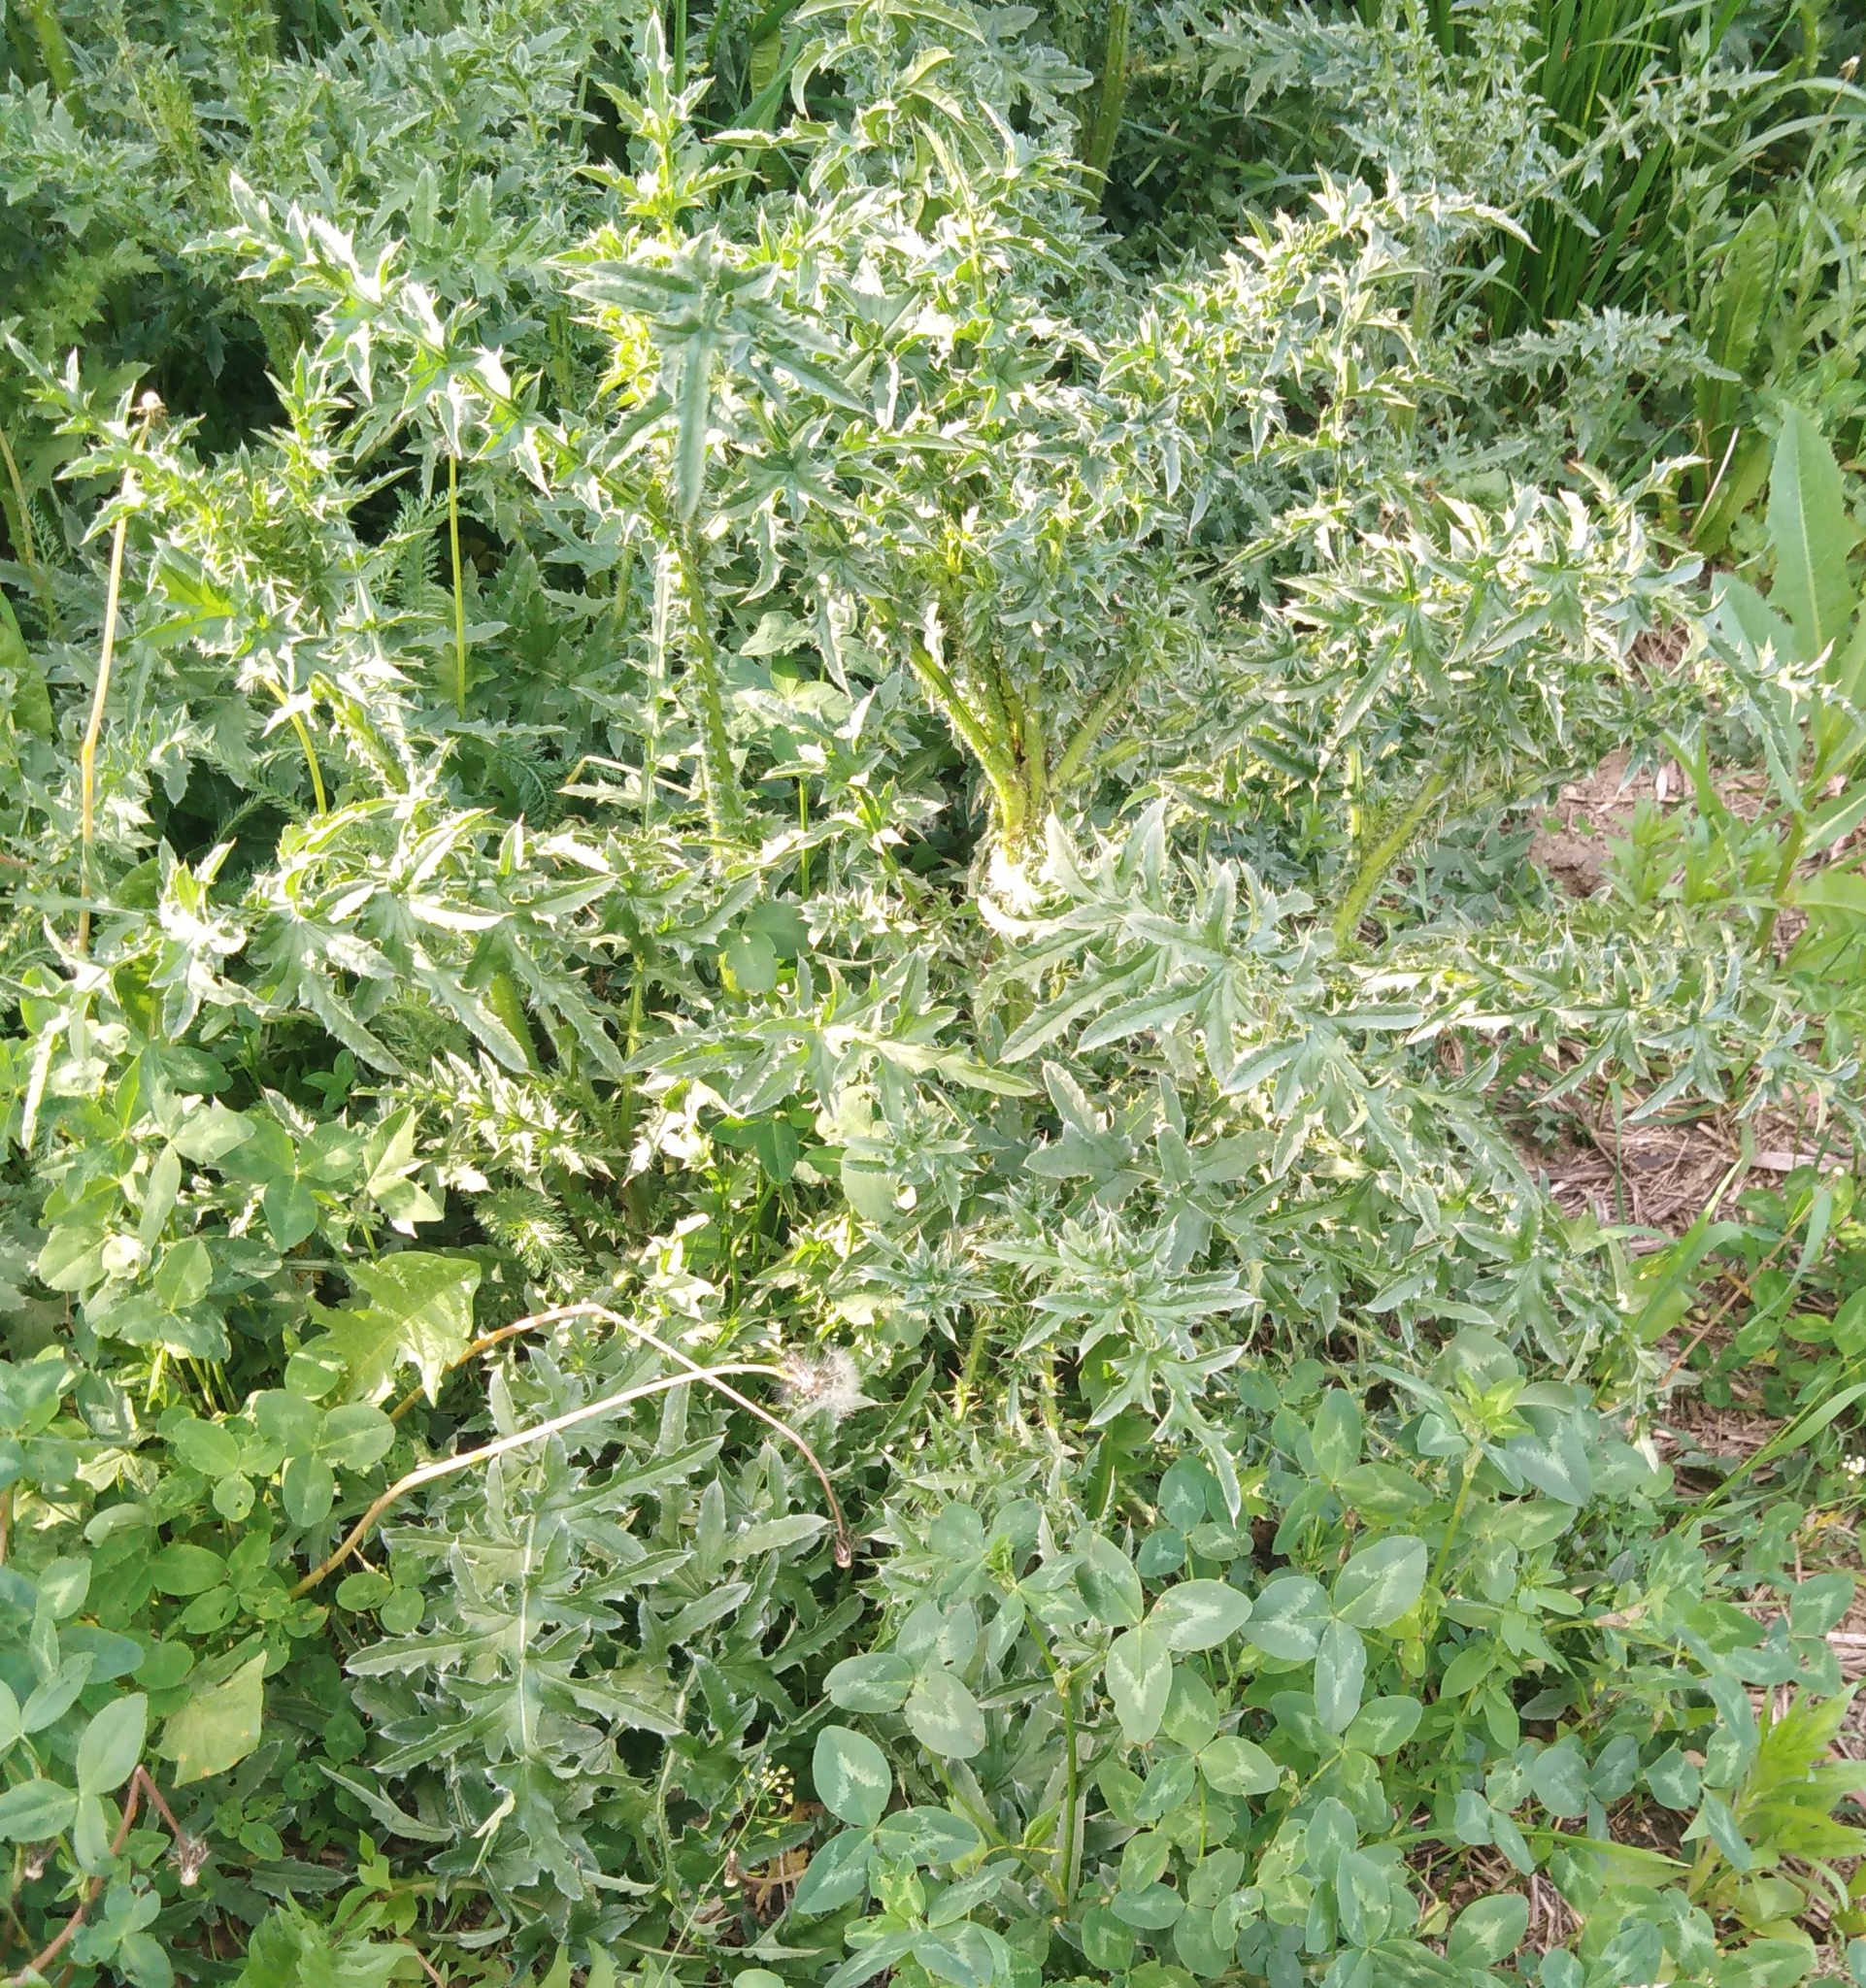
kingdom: Plantae
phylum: Tracheophyta
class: Magnoliopsida
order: Asterales
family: Asteraceae
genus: Carduus
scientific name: Carduus acanthoides
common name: Plumeless thistle
